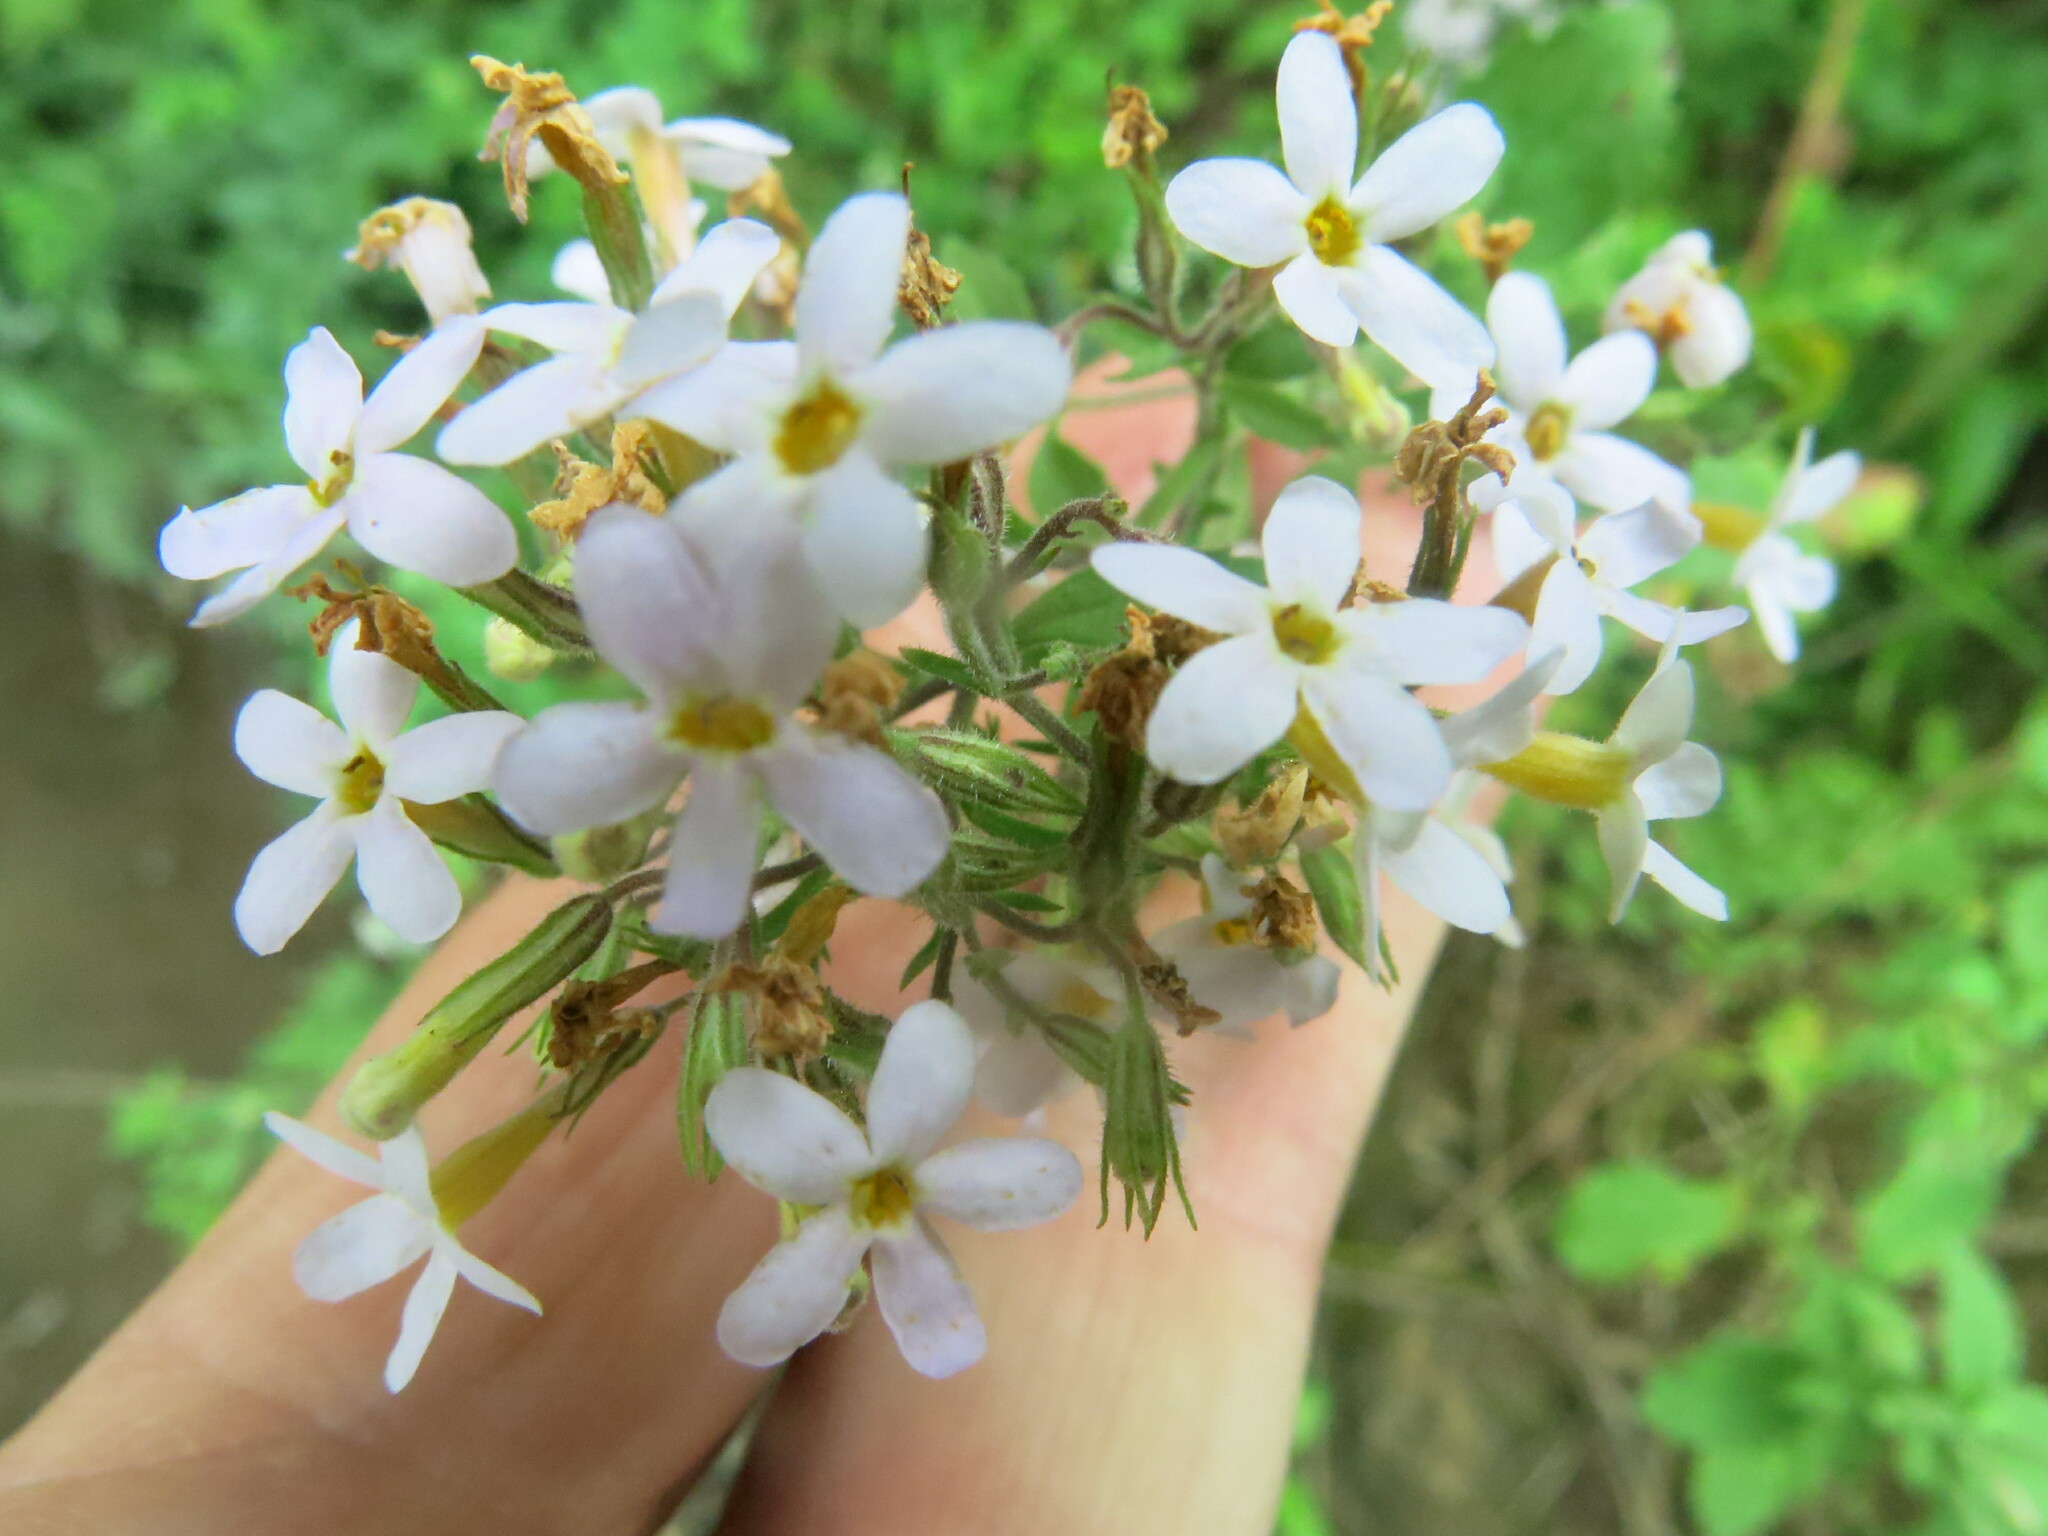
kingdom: Plantae
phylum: Tracheophyta
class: Magnoliopsida
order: Lamiales
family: Scrophulariaceae
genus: Chaenostoma
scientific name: Chaenostoma floribundum
